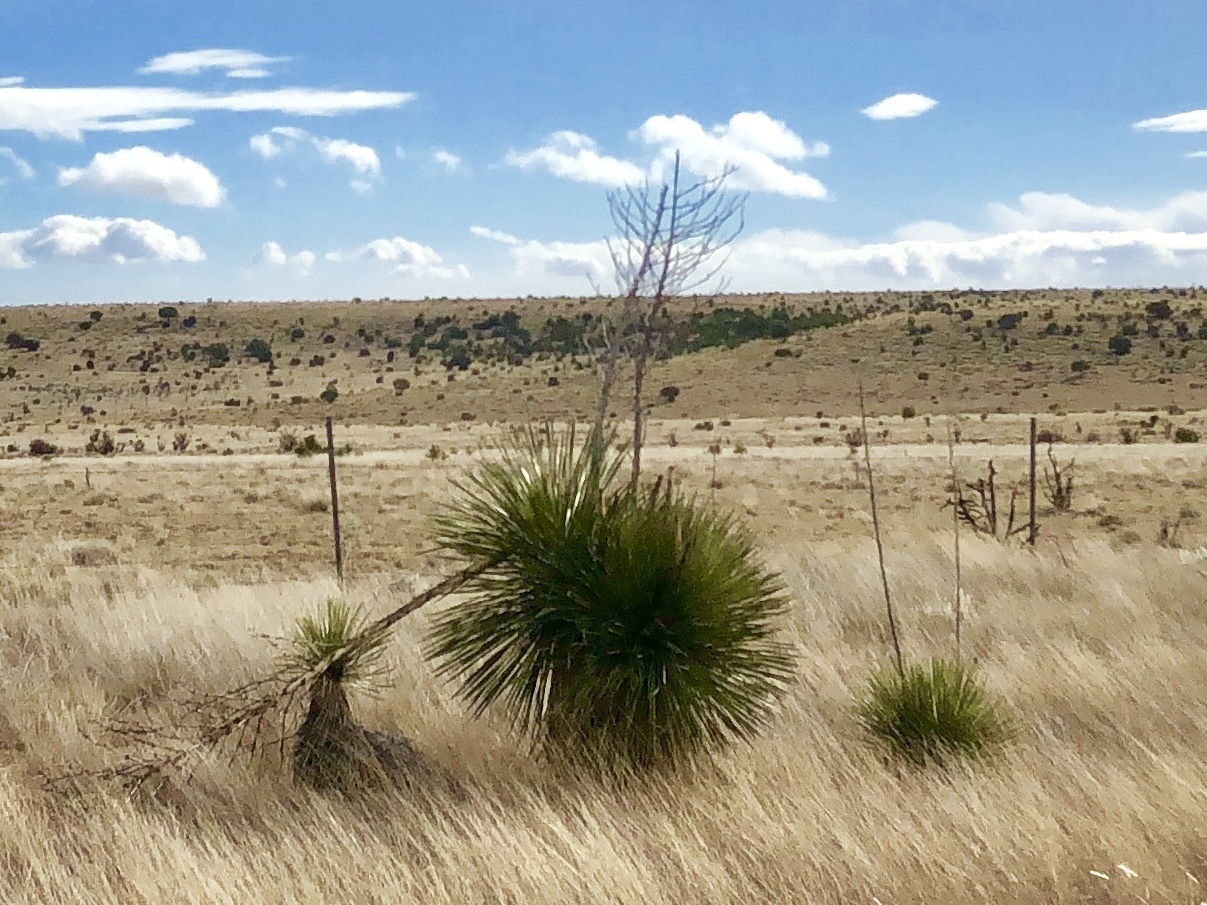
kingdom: Plantae
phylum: Tracheophyta
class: Liliopsida
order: Asparagales
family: Asparagaceae
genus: Yucca
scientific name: Yucca elata
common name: Palmella
